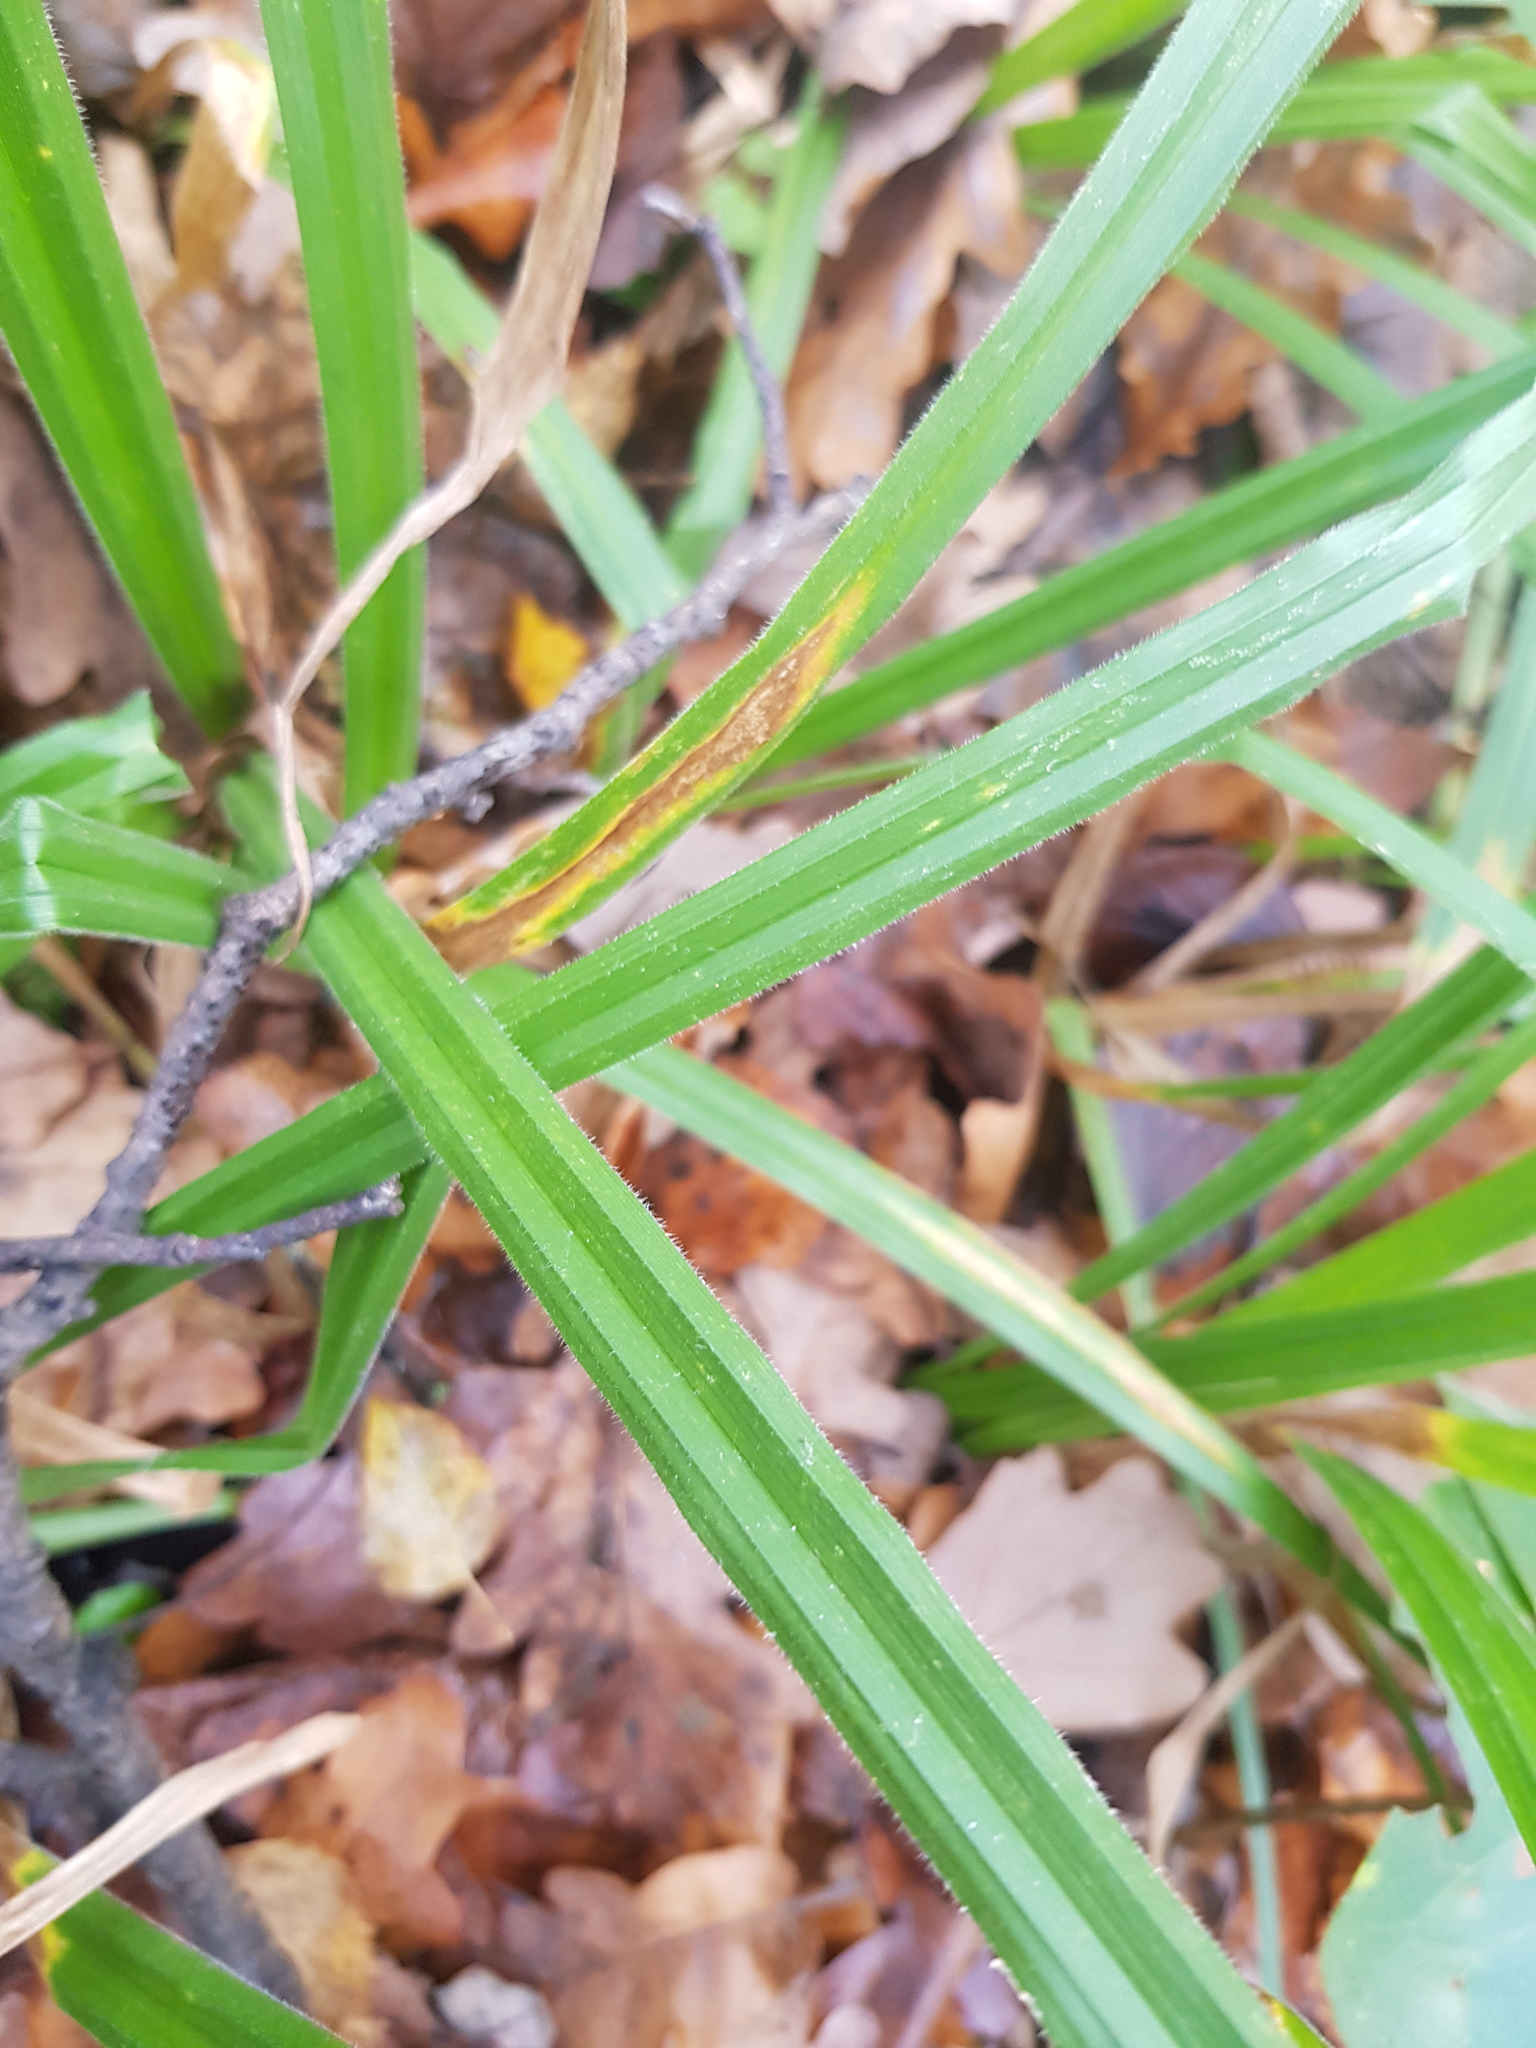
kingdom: Plantae
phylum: Tracheophyta
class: Liliopsida
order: Poales
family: Cyperaceae
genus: Carex
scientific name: Carex pilosa
